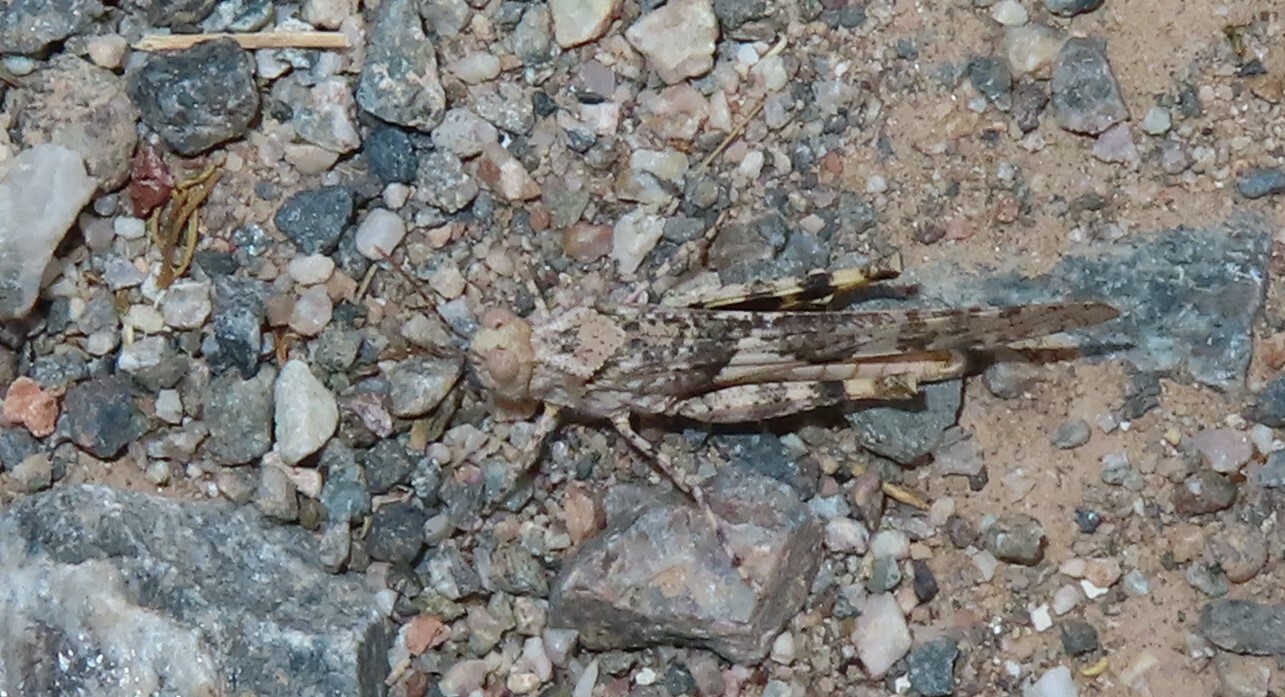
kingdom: Animalia
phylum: Arthropoda
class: Insecta
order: Orthoptera
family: Acrididae
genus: Trimerotropis
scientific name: Trimerotropis pallidipennis
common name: Pallid-winged grasshopper
